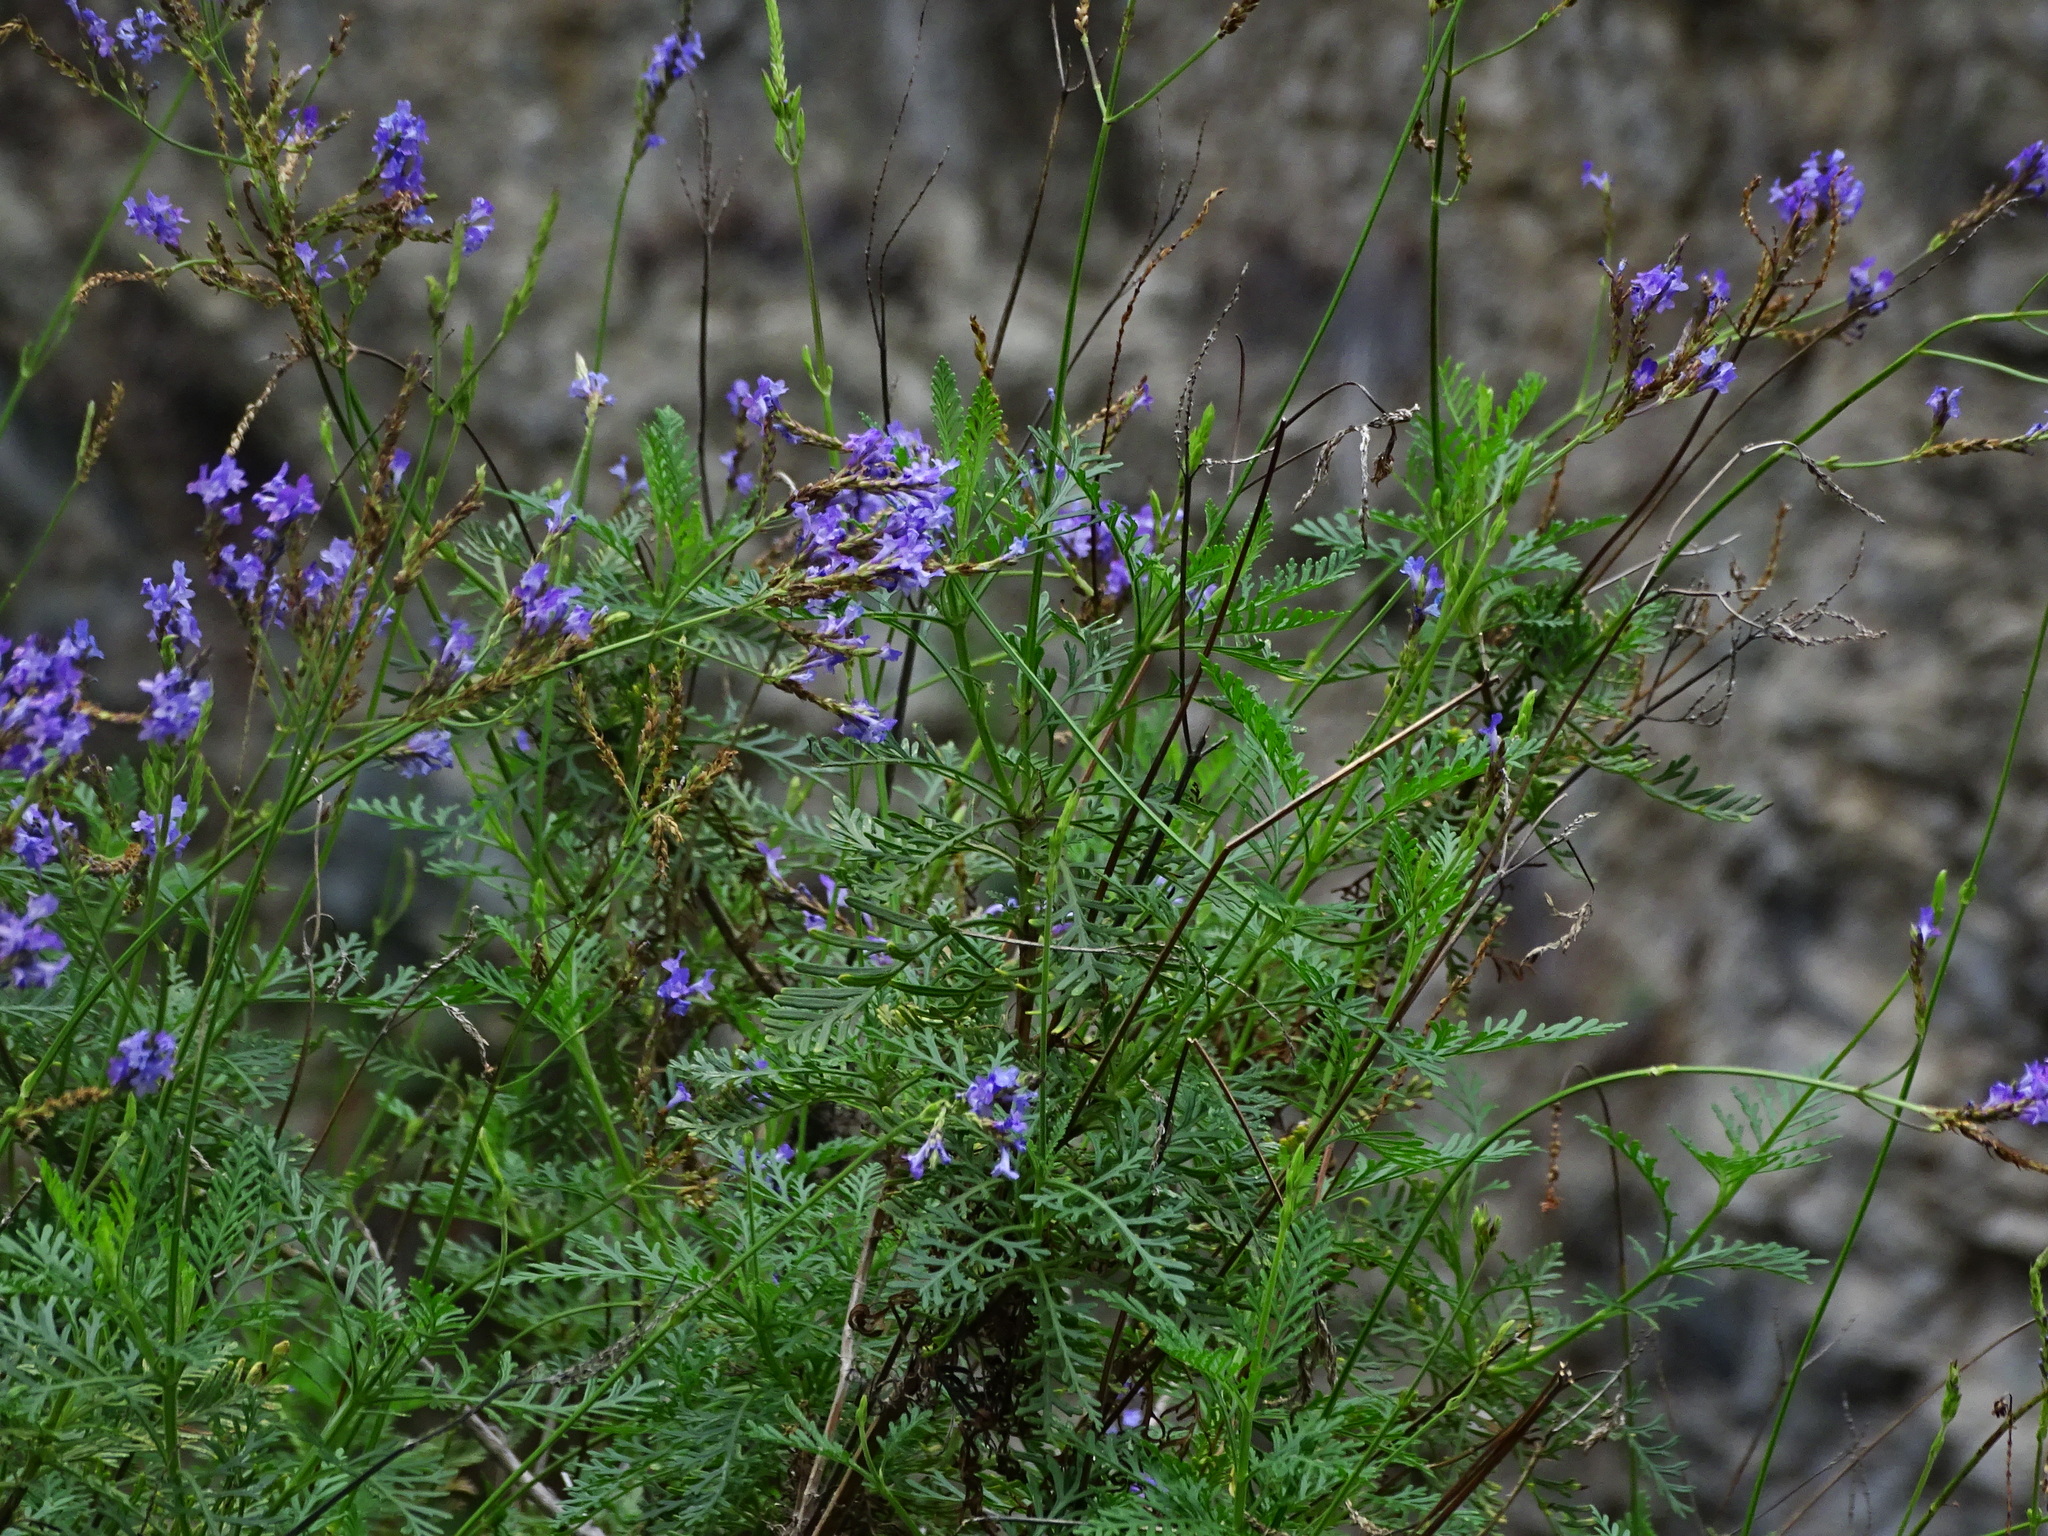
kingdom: Plantae
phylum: Tracheophyta
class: Magnoliopsida
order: Lamiales
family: Lamiaceae
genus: Lavandula
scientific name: Lavandula canariensis
